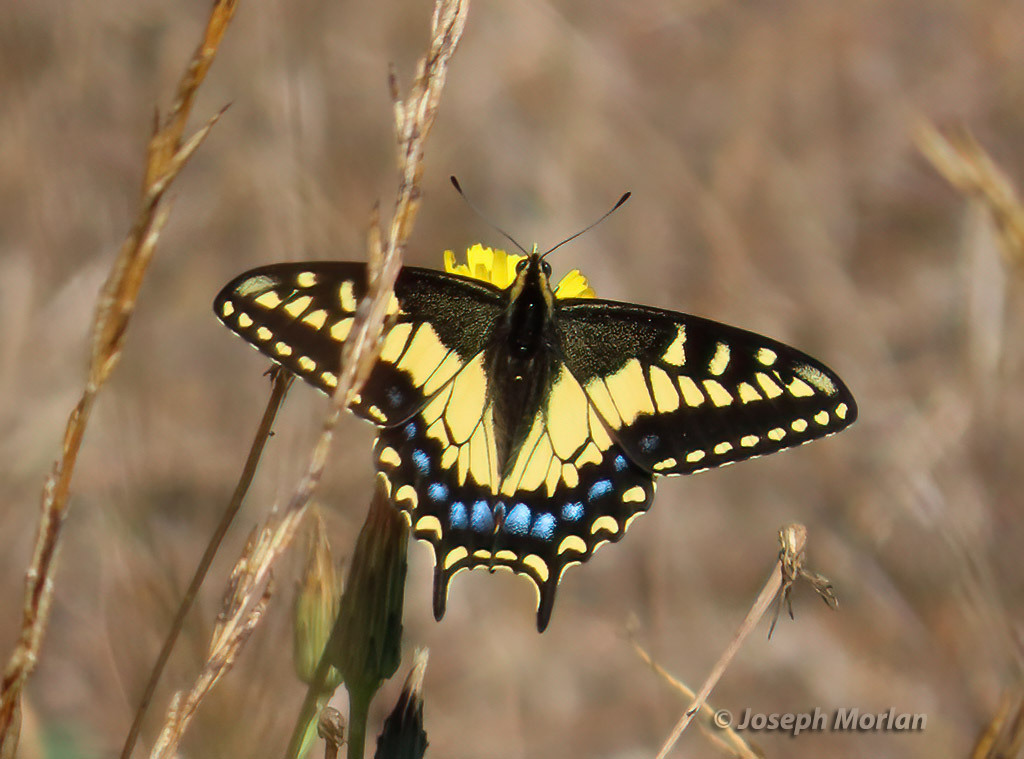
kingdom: Animalia
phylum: Arthropoda
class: Insecta
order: Lepidoptera
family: Papilionidae
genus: Papilio
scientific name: Papilio zelicaon
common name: Anise swallowtail
